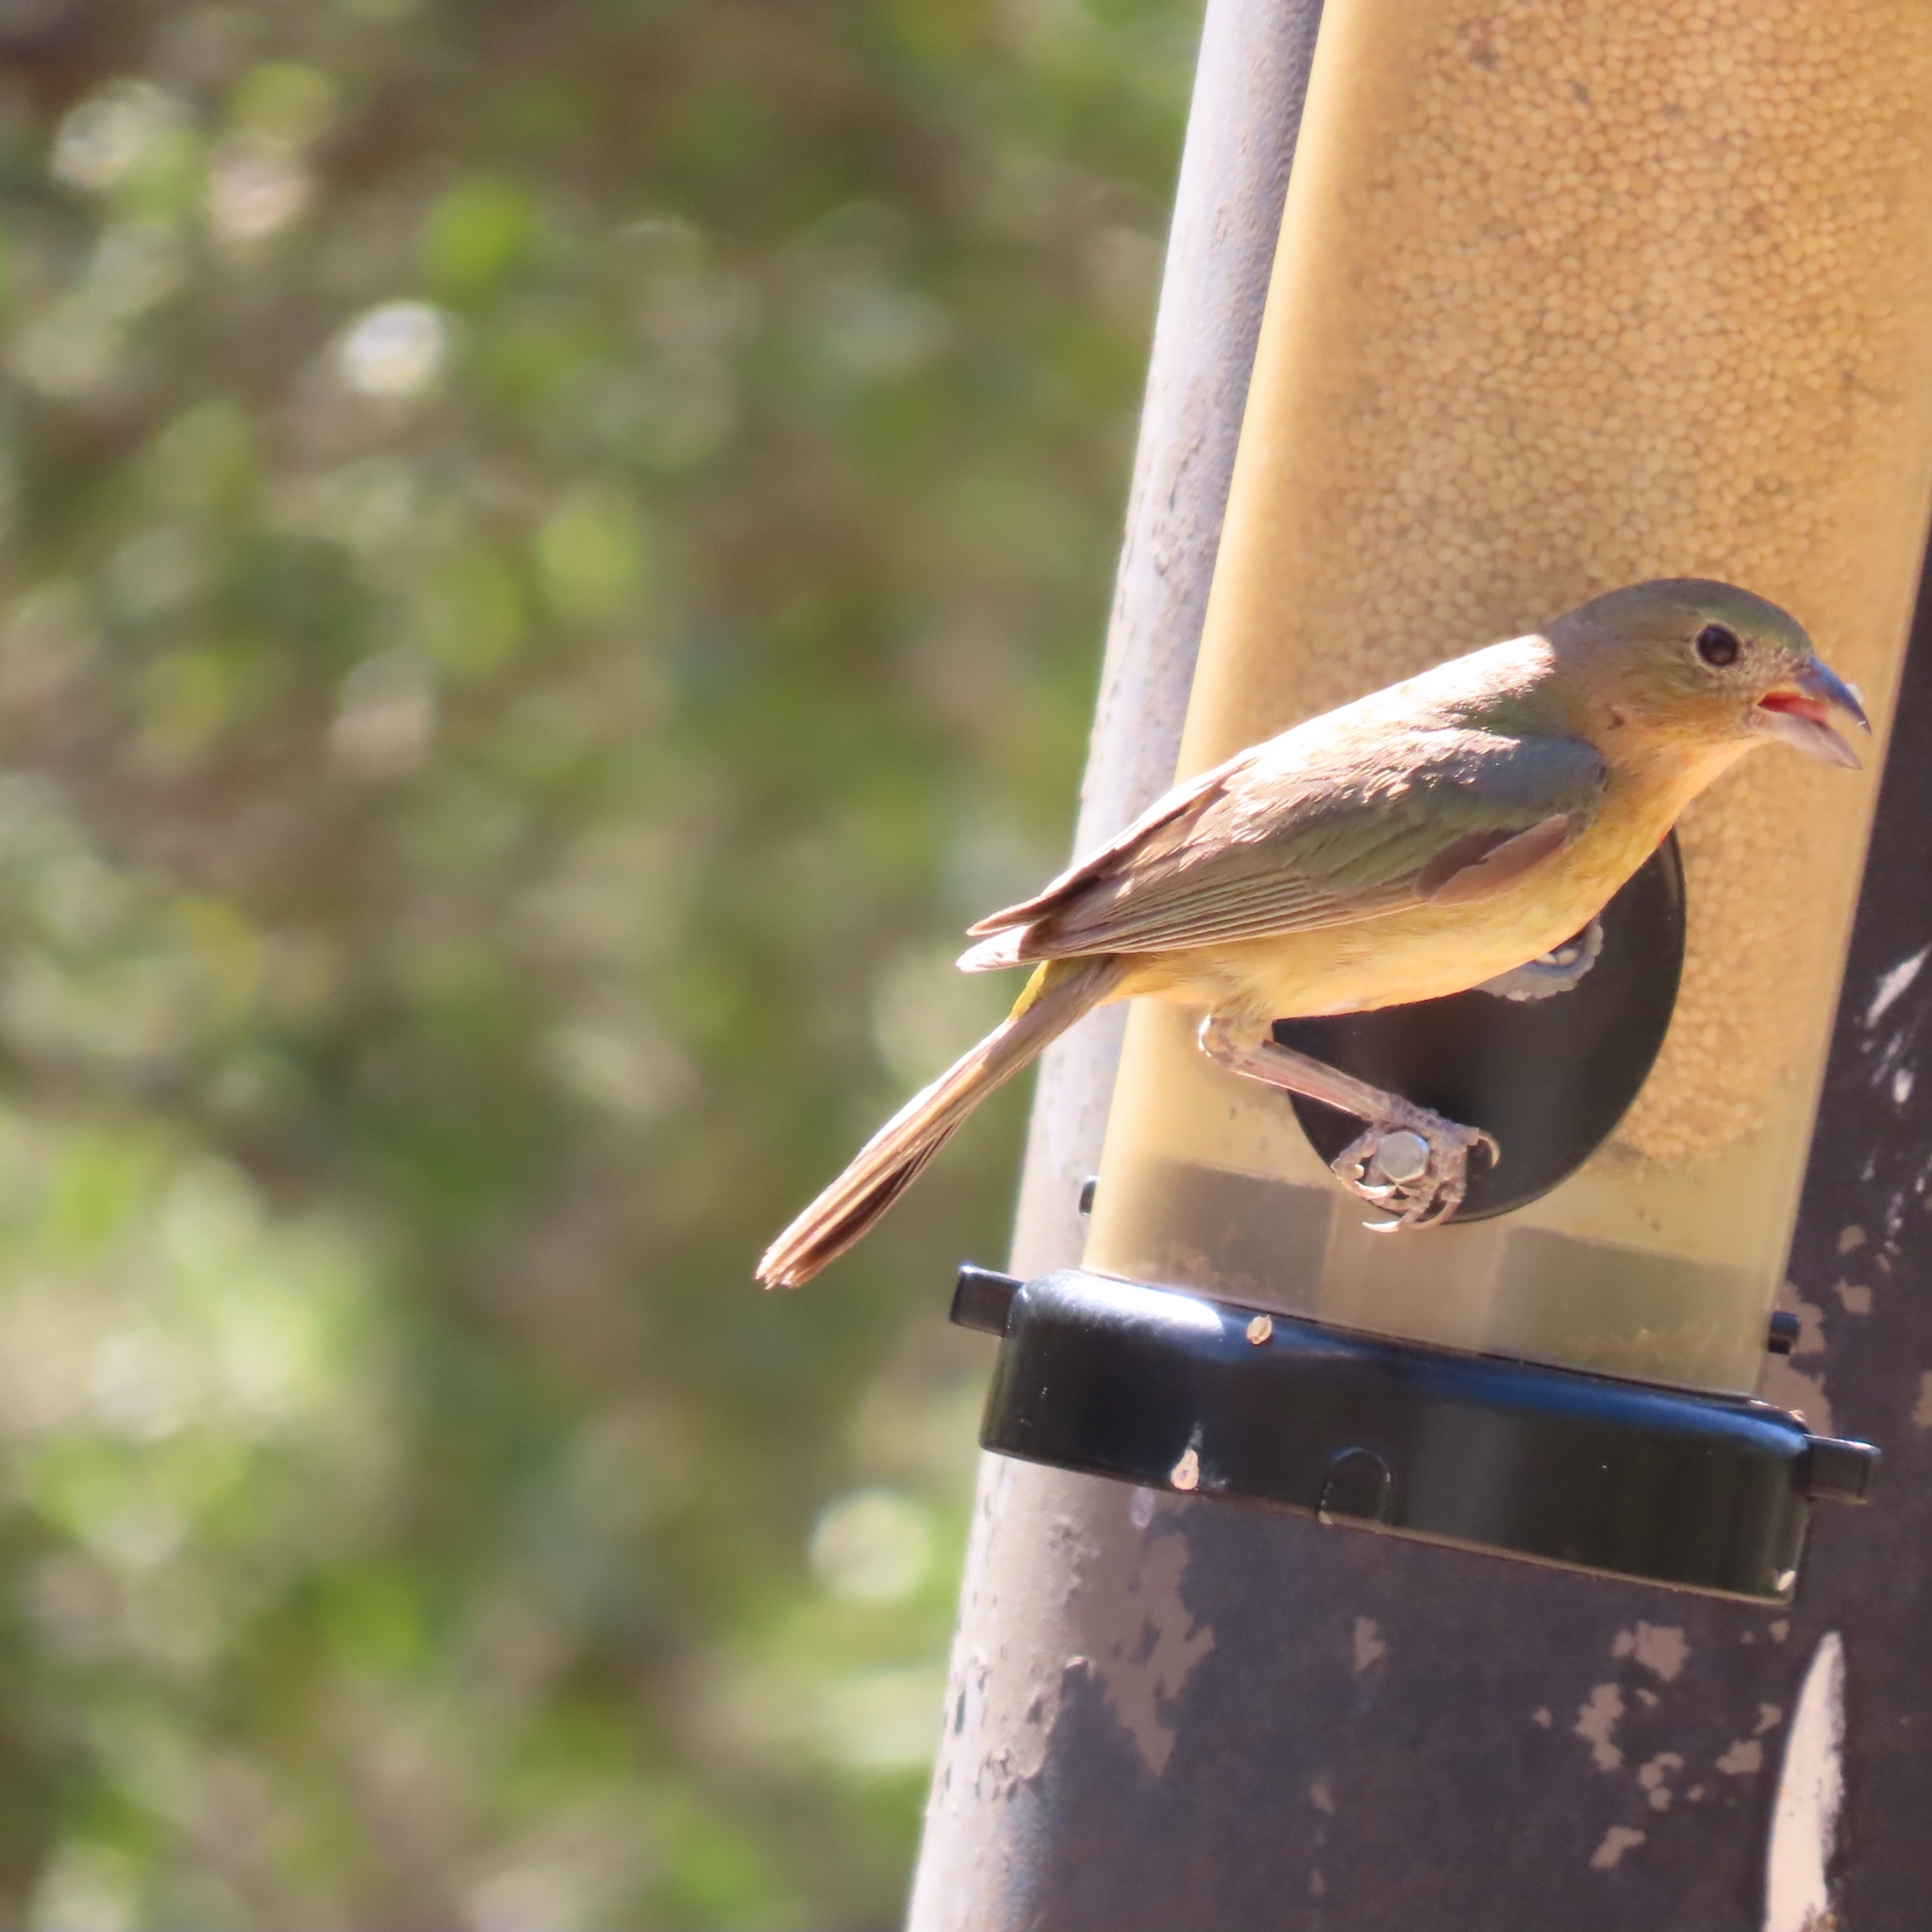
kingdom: Animalia
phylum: Chordata
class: Aves
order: Passeriformes
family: Cardinalidae
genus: Passerina
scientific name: Passerina ciris
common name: Painted bunting
